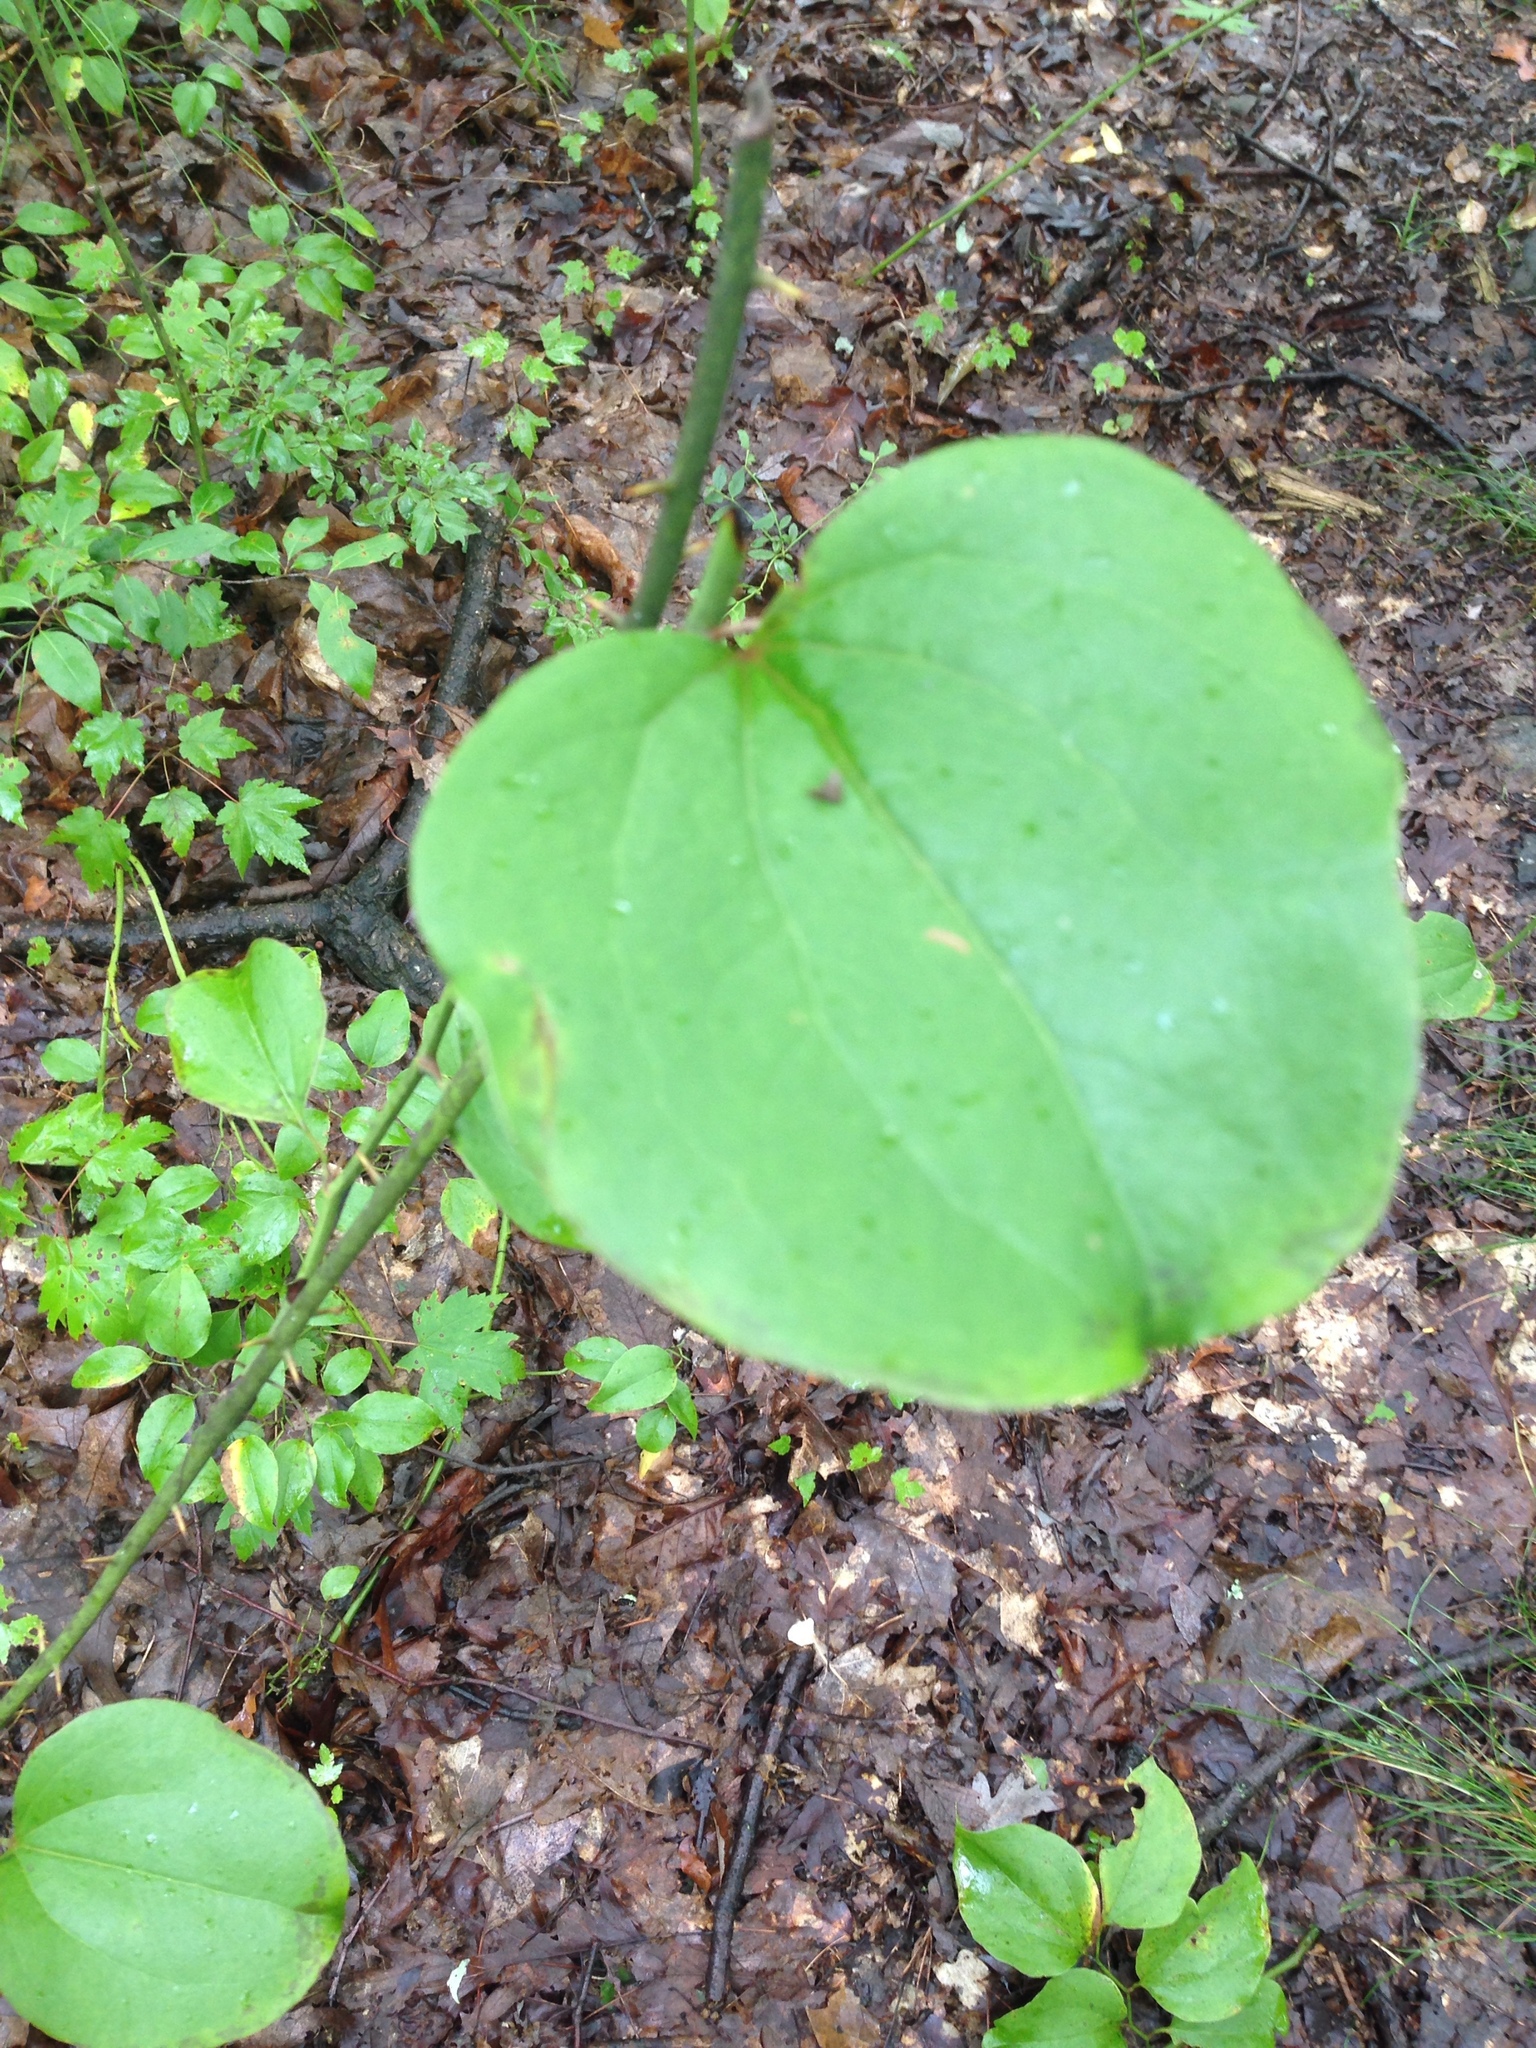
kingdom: Plantae
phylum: Tracheophyta
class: Liliopsida
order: Liliales
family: Smilacaceae
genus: Smilax
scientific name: Smilax rotundifolia
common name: Bullbriar
